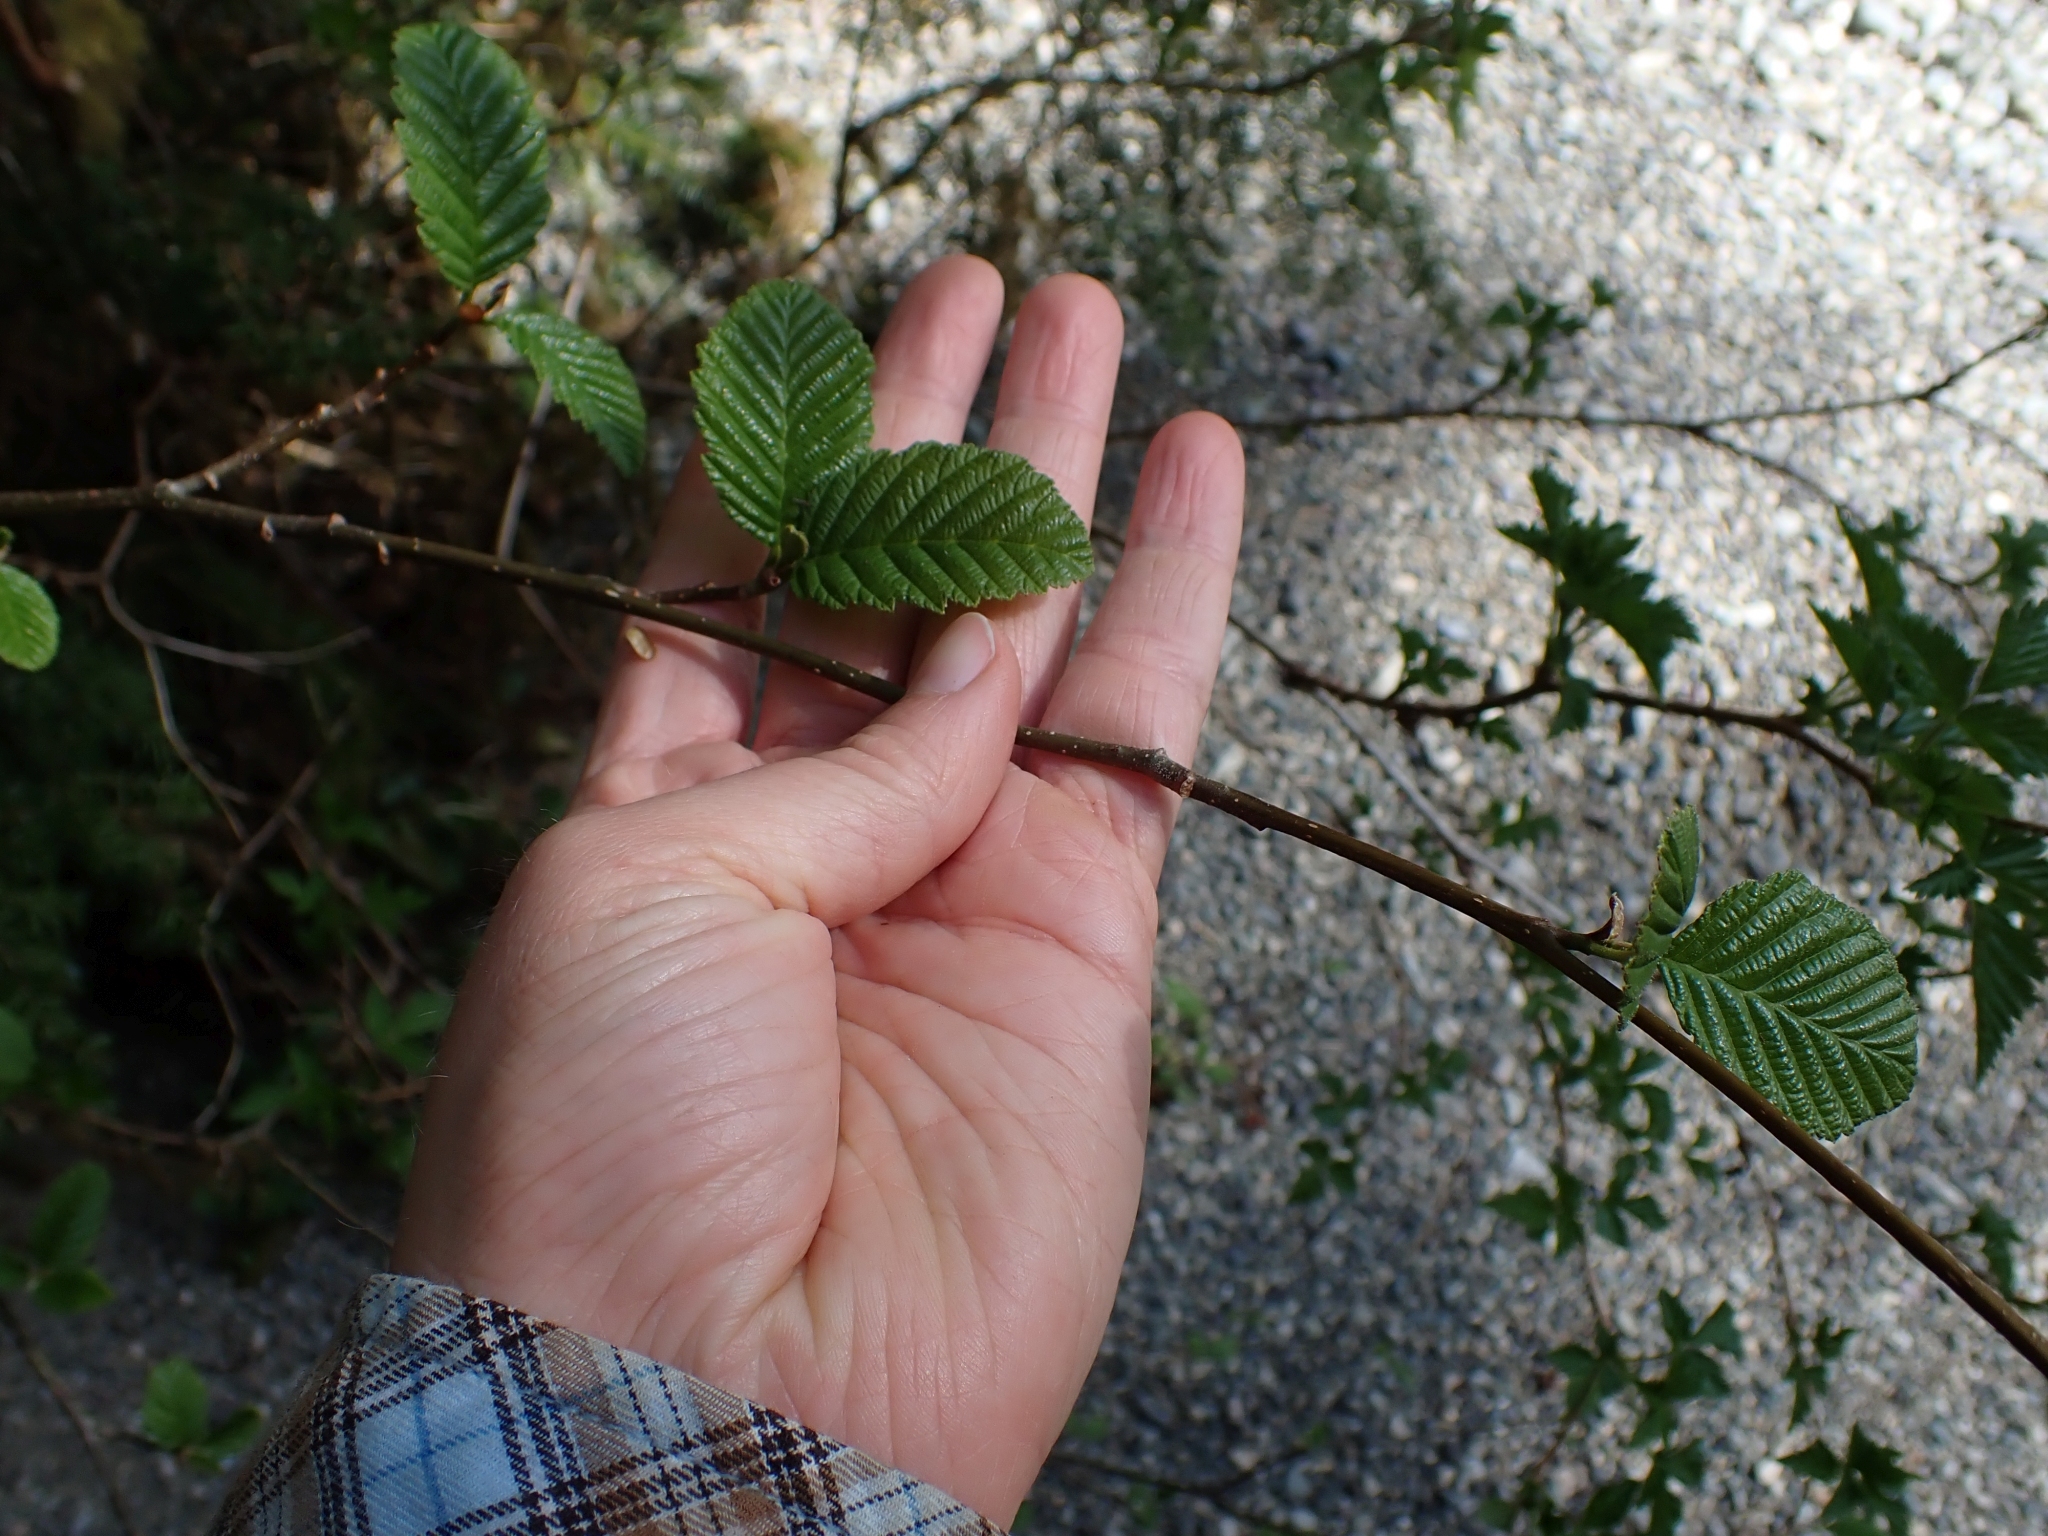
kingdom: Plantae
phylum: Tracheophyta
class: Magnoliopsida
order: Fagales
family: Betulaceae
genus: Alnus
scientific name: Alnus rubra
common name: Red alder
